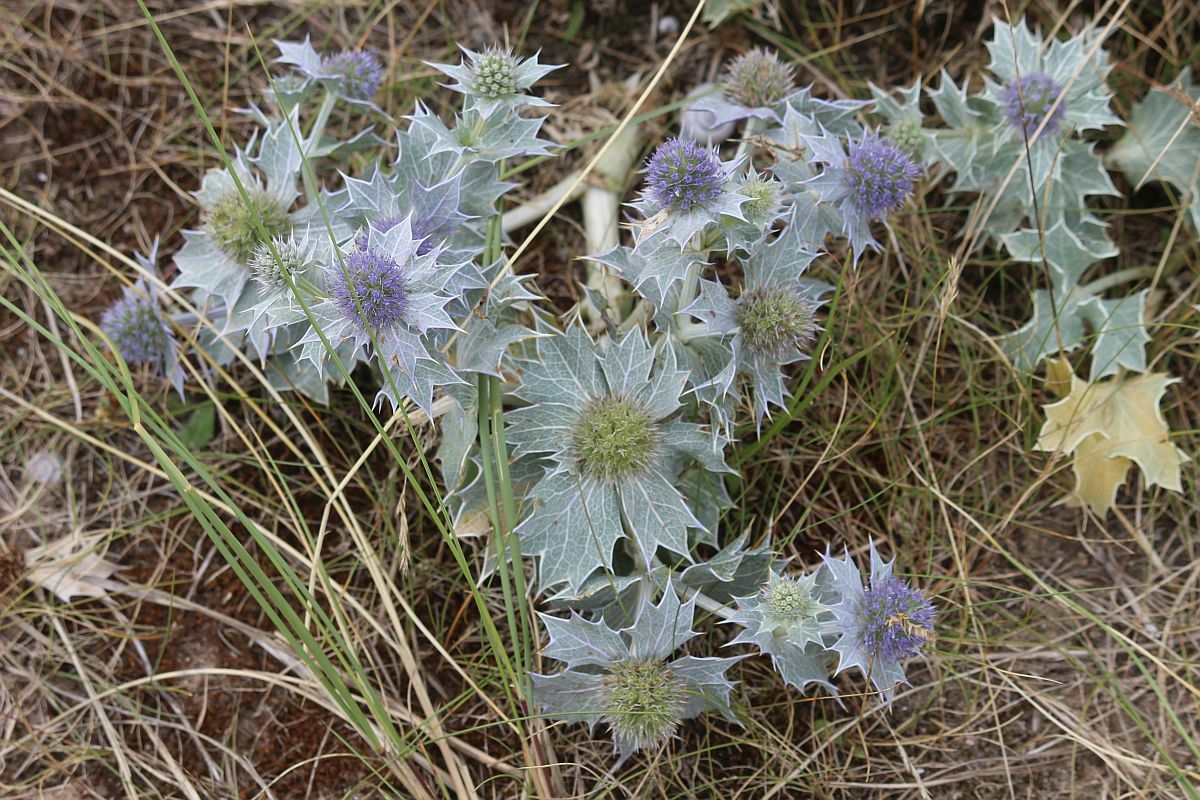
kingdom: Plantae
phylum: Tracheophyta
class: Magnoliopsida
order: Apiales
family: Apiaceae
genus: Eryngium
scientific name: Eryngium maritimum
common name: Sea-holly
